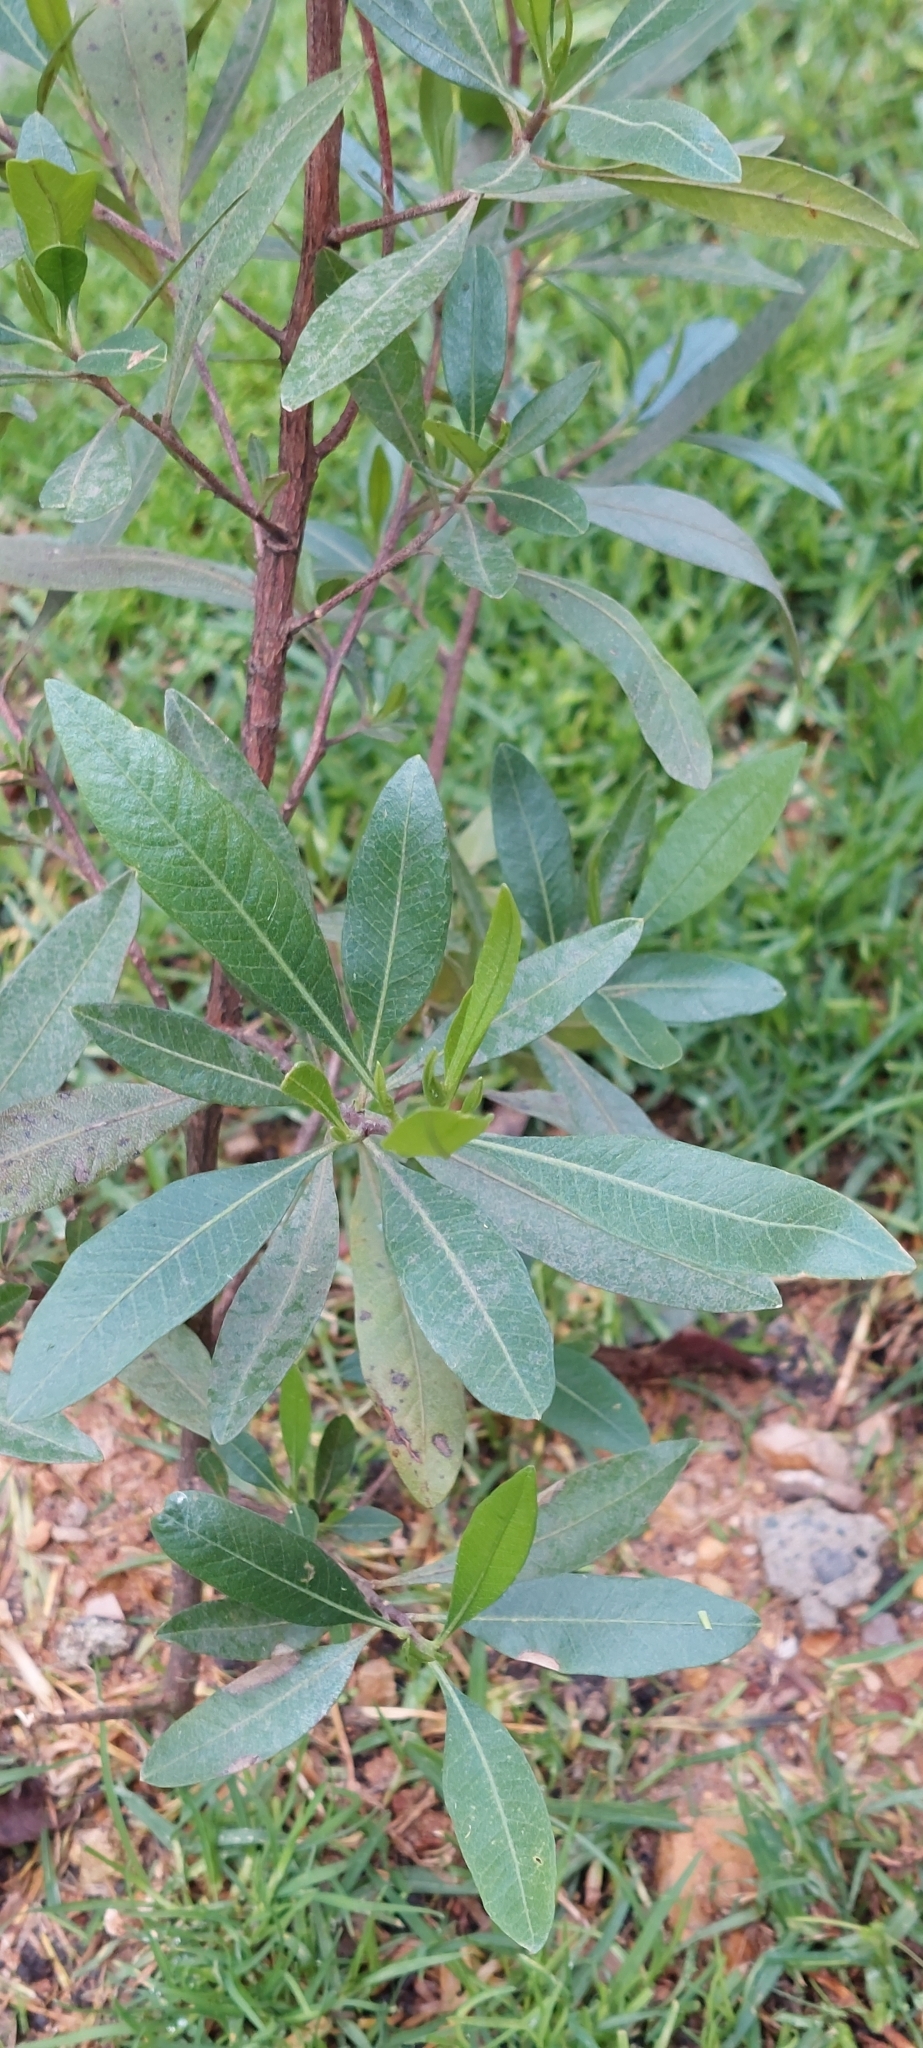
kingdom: Plantae
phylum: Tracheophyta
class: Magnoliopsida
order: Sapindales
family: Sapindaceae
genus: Dodonaea
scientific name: Dodonaea viscosa
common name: Hopbush
